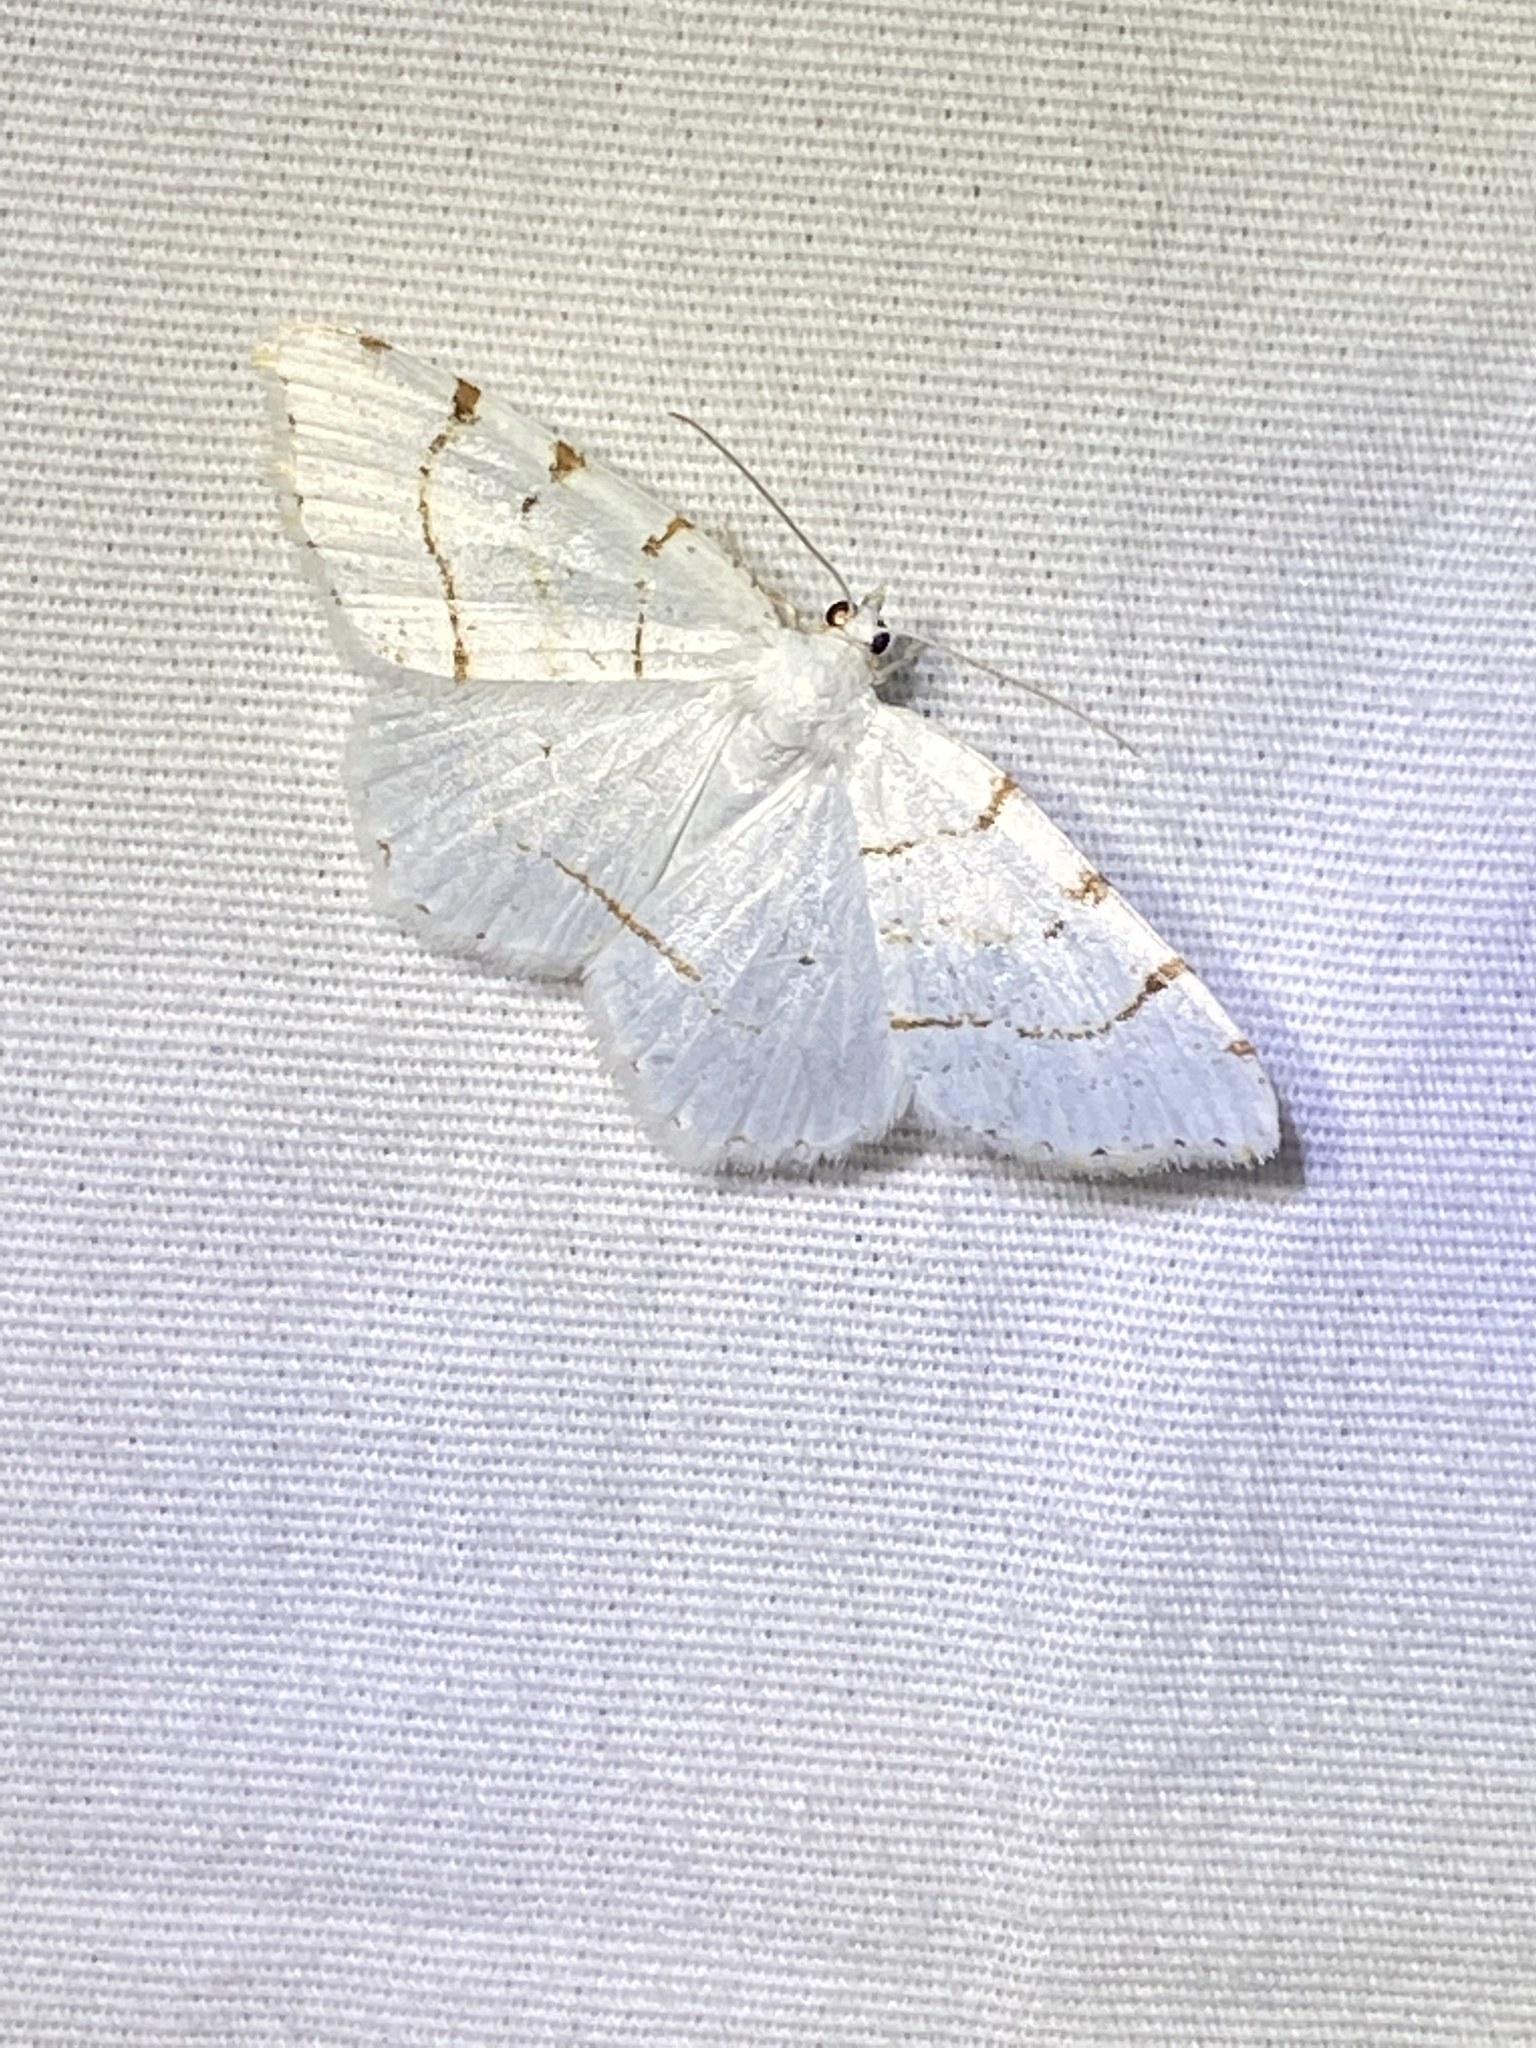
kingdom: Animalia
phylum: Arthropoda
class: Insecta
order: Lepidoptera
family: Geometridae
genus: Macaria
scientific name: Macaria pustularia
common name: Lesser maple spanworm moth
